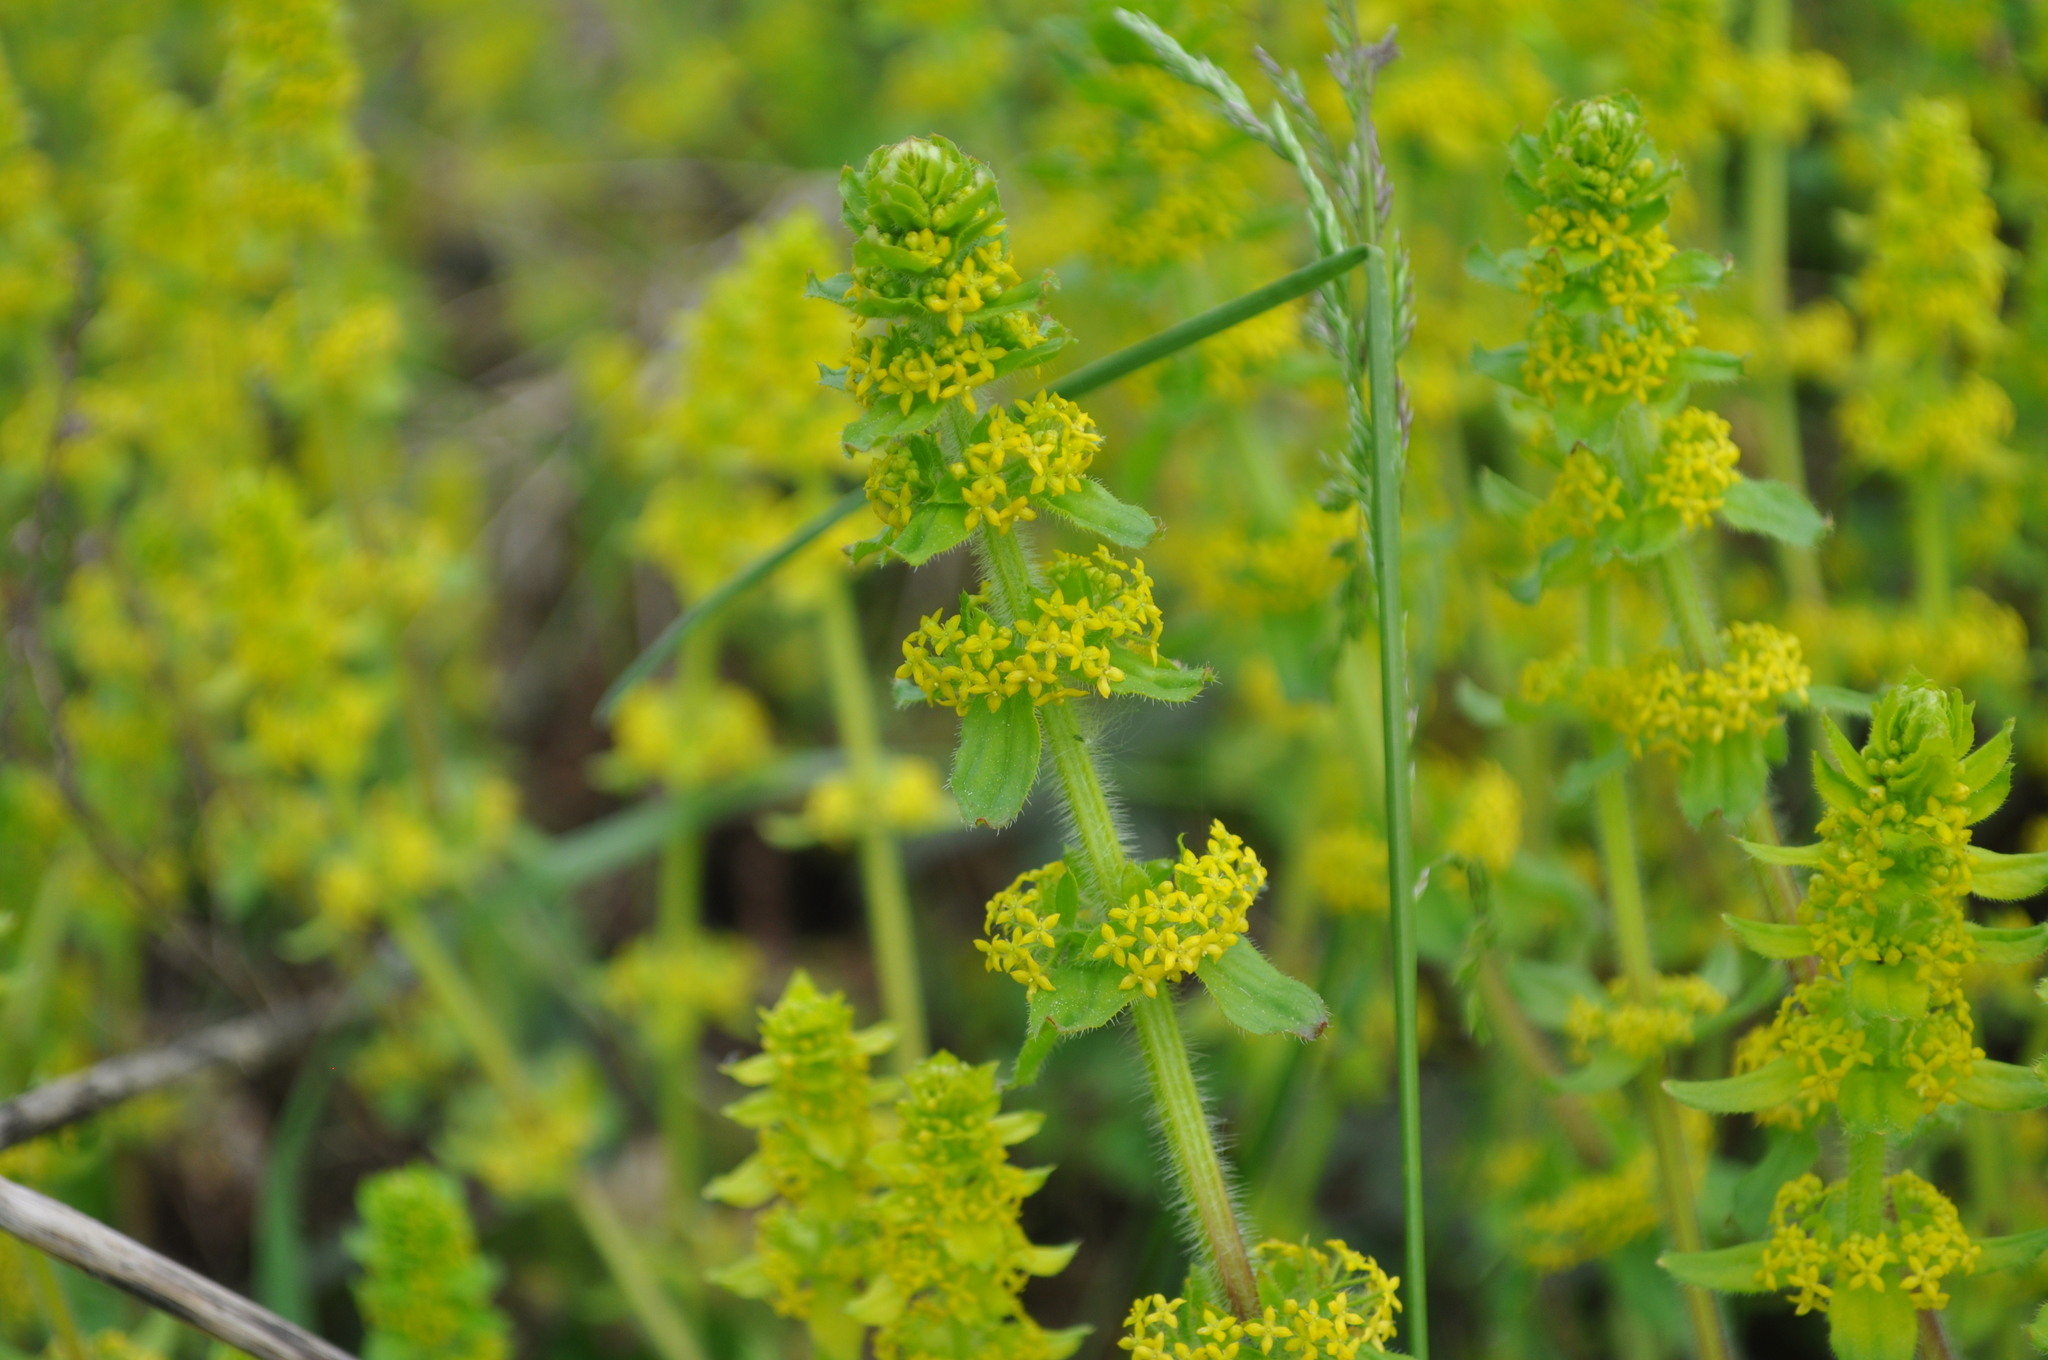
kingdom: Plantae
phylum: Tracheophyta
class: Magnoliopsida
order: Gentianales
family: Rubiaceae
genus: Cruciata
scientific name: Cruciata laevipes
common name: Crosswort
